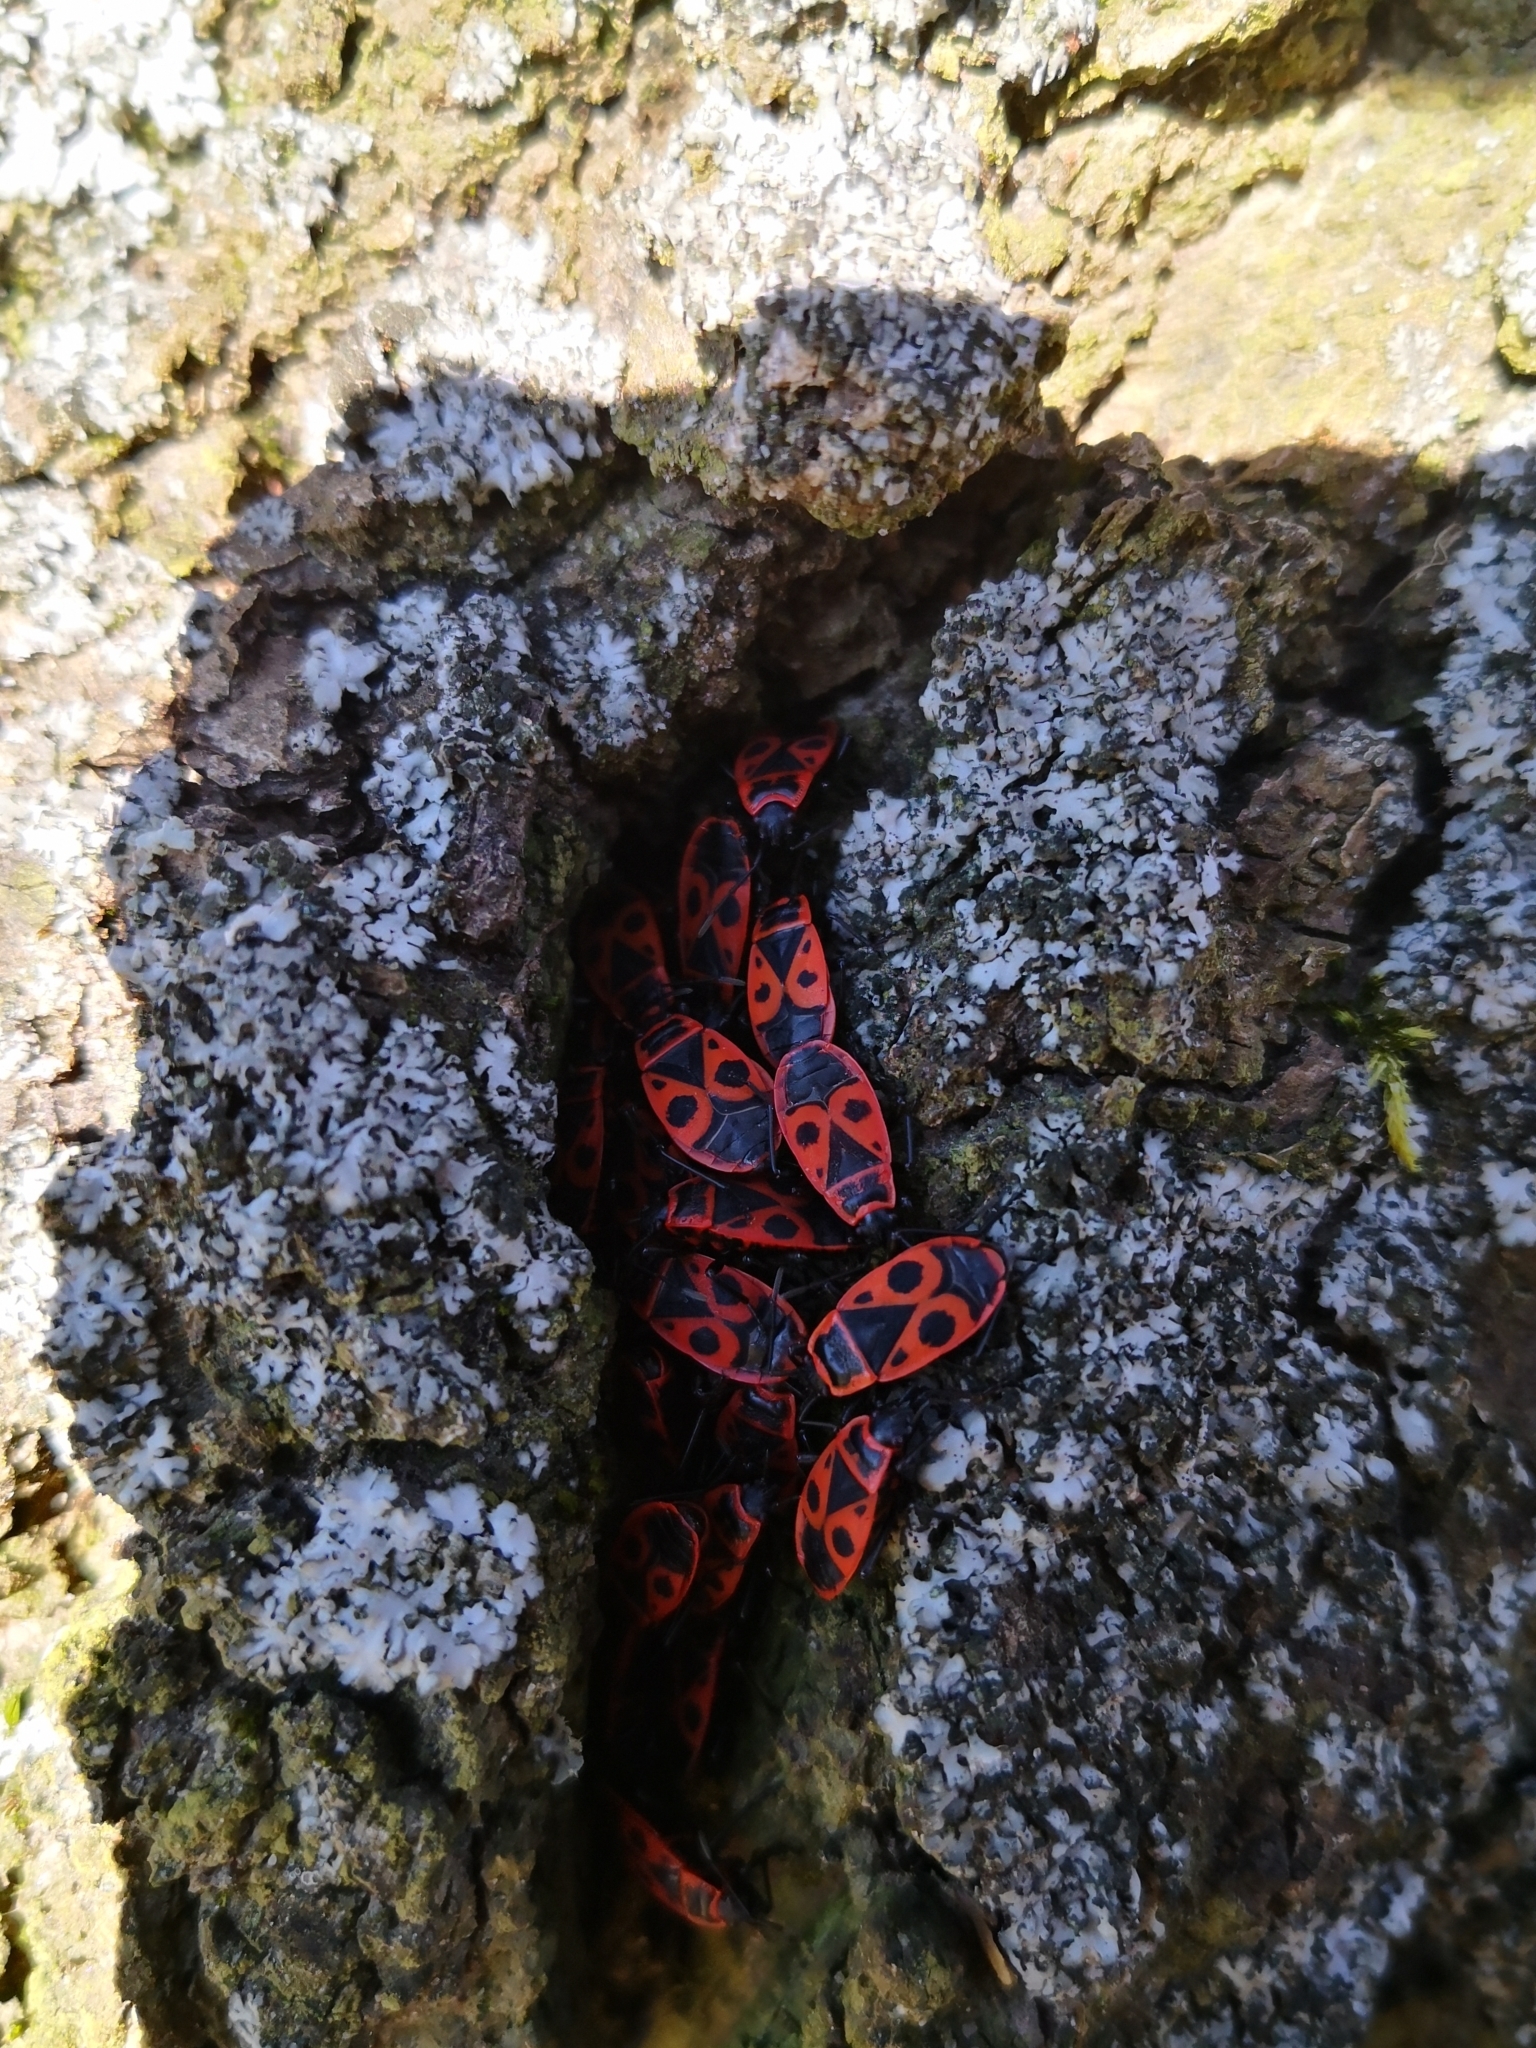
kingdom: Animalia
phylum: Arthropoda
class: Insecta
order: Hemiptera
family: Pyrrhocoridae
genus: Pyrrhocoris
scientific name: Pyrrhocoris apterus
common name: Firebug
